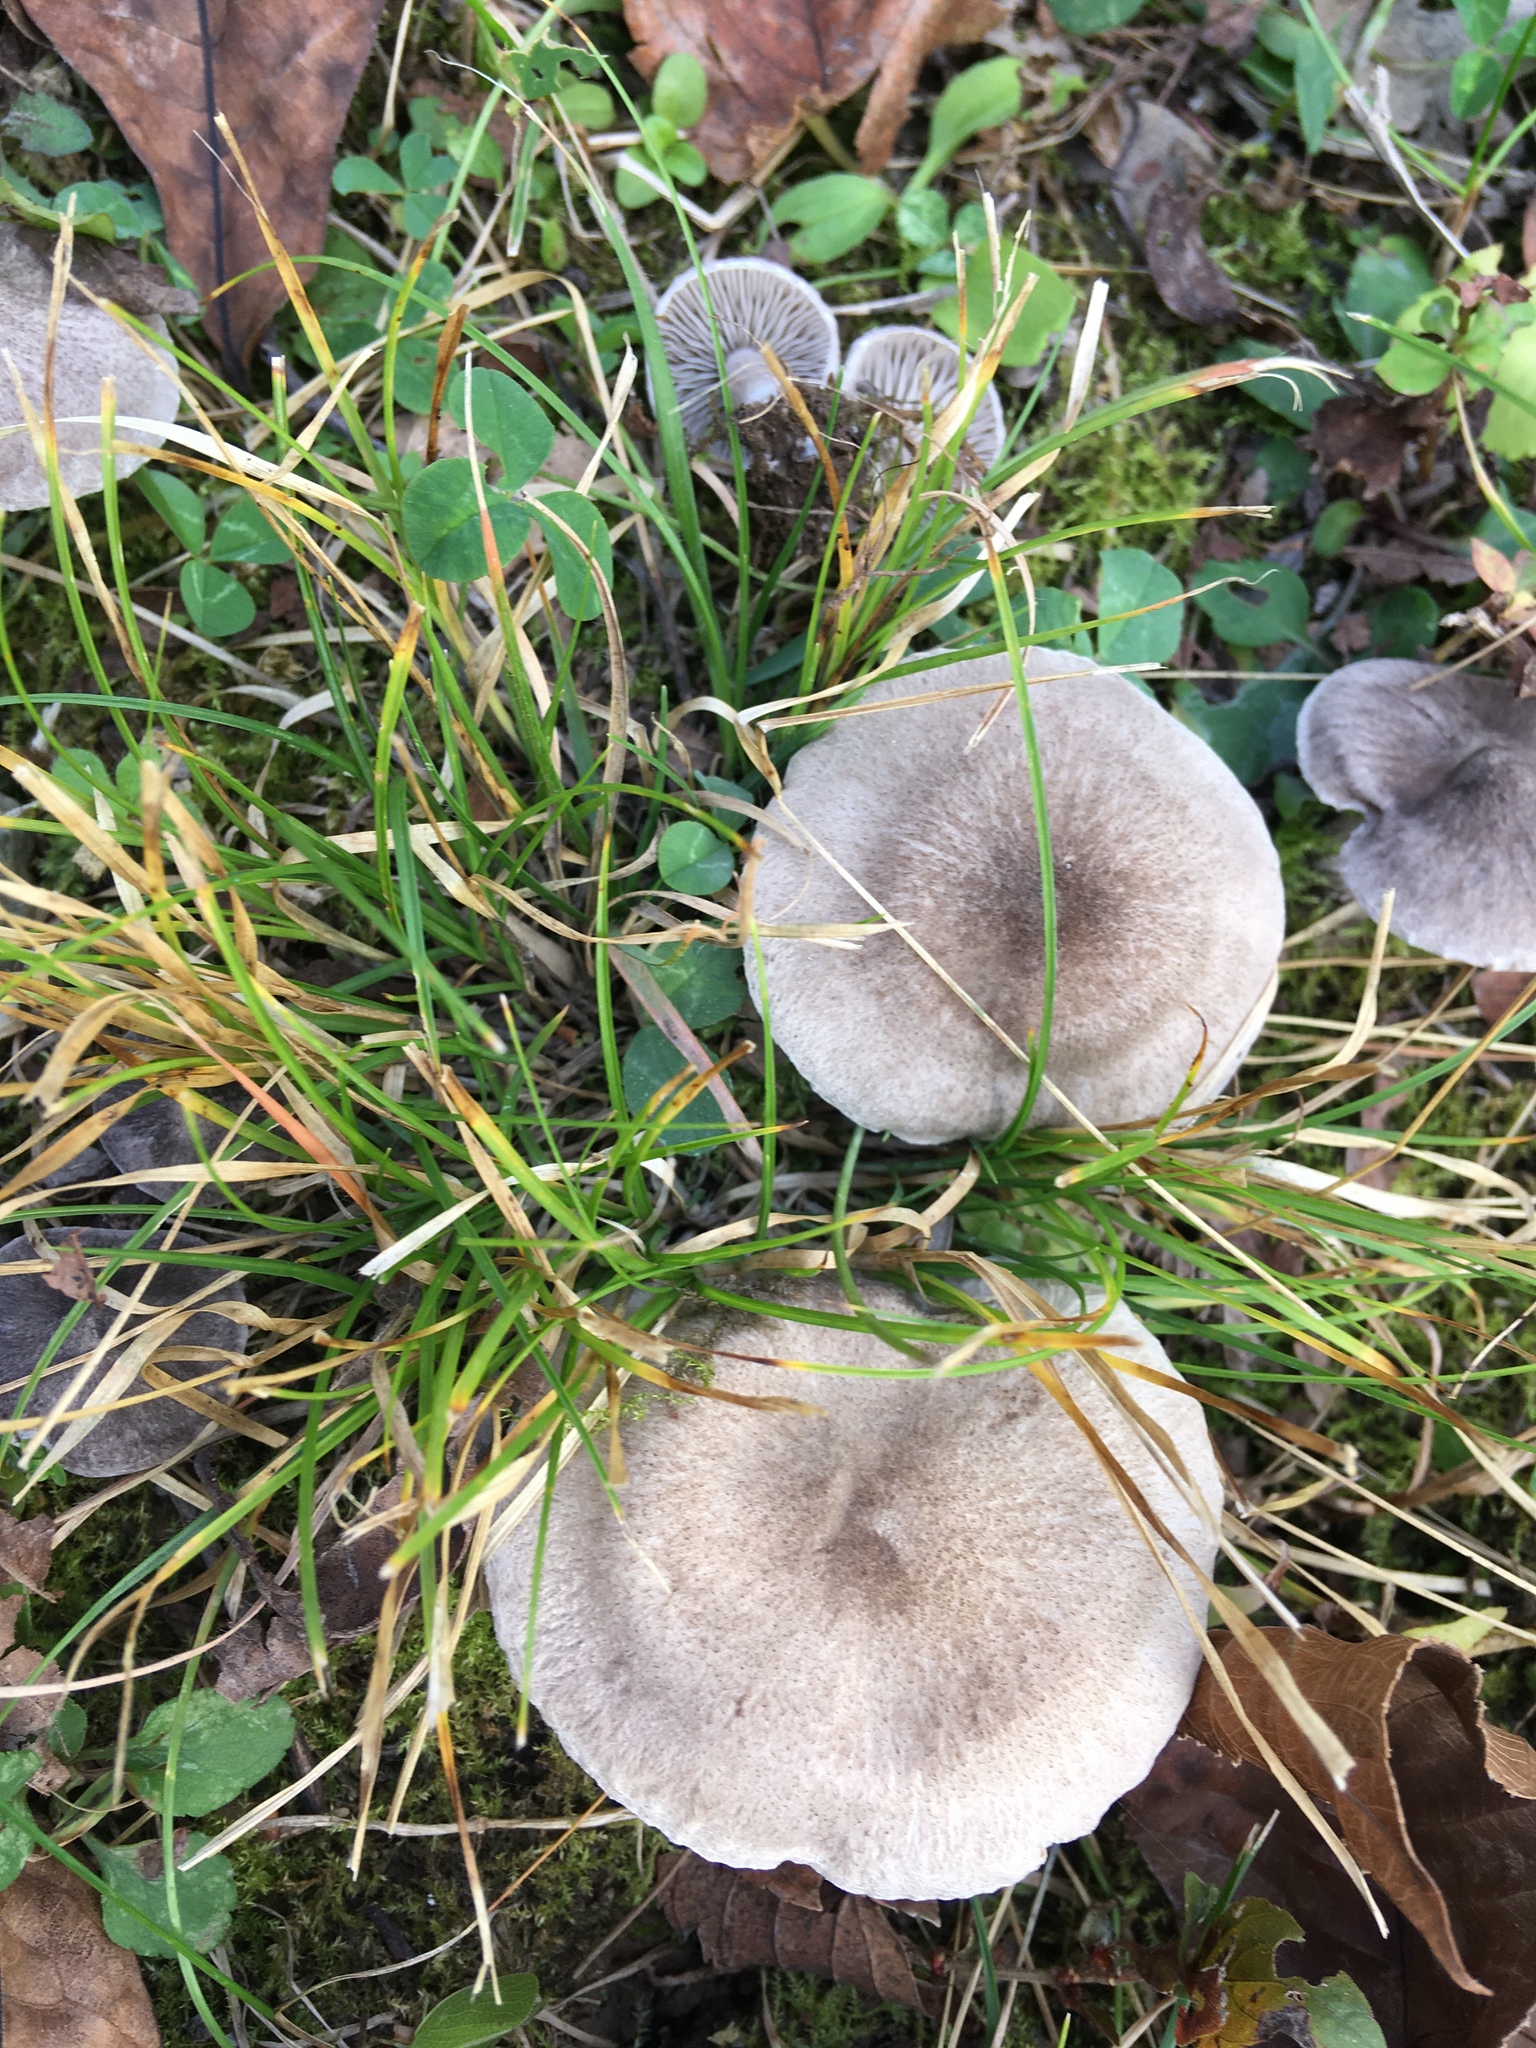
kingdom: Fungi
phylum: Basidiomycota
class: Agaricomycetes
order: Agaricales
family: Tricholomataceae
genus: Tricholoma
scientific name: Tricholoma terreum
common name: Grey knight
